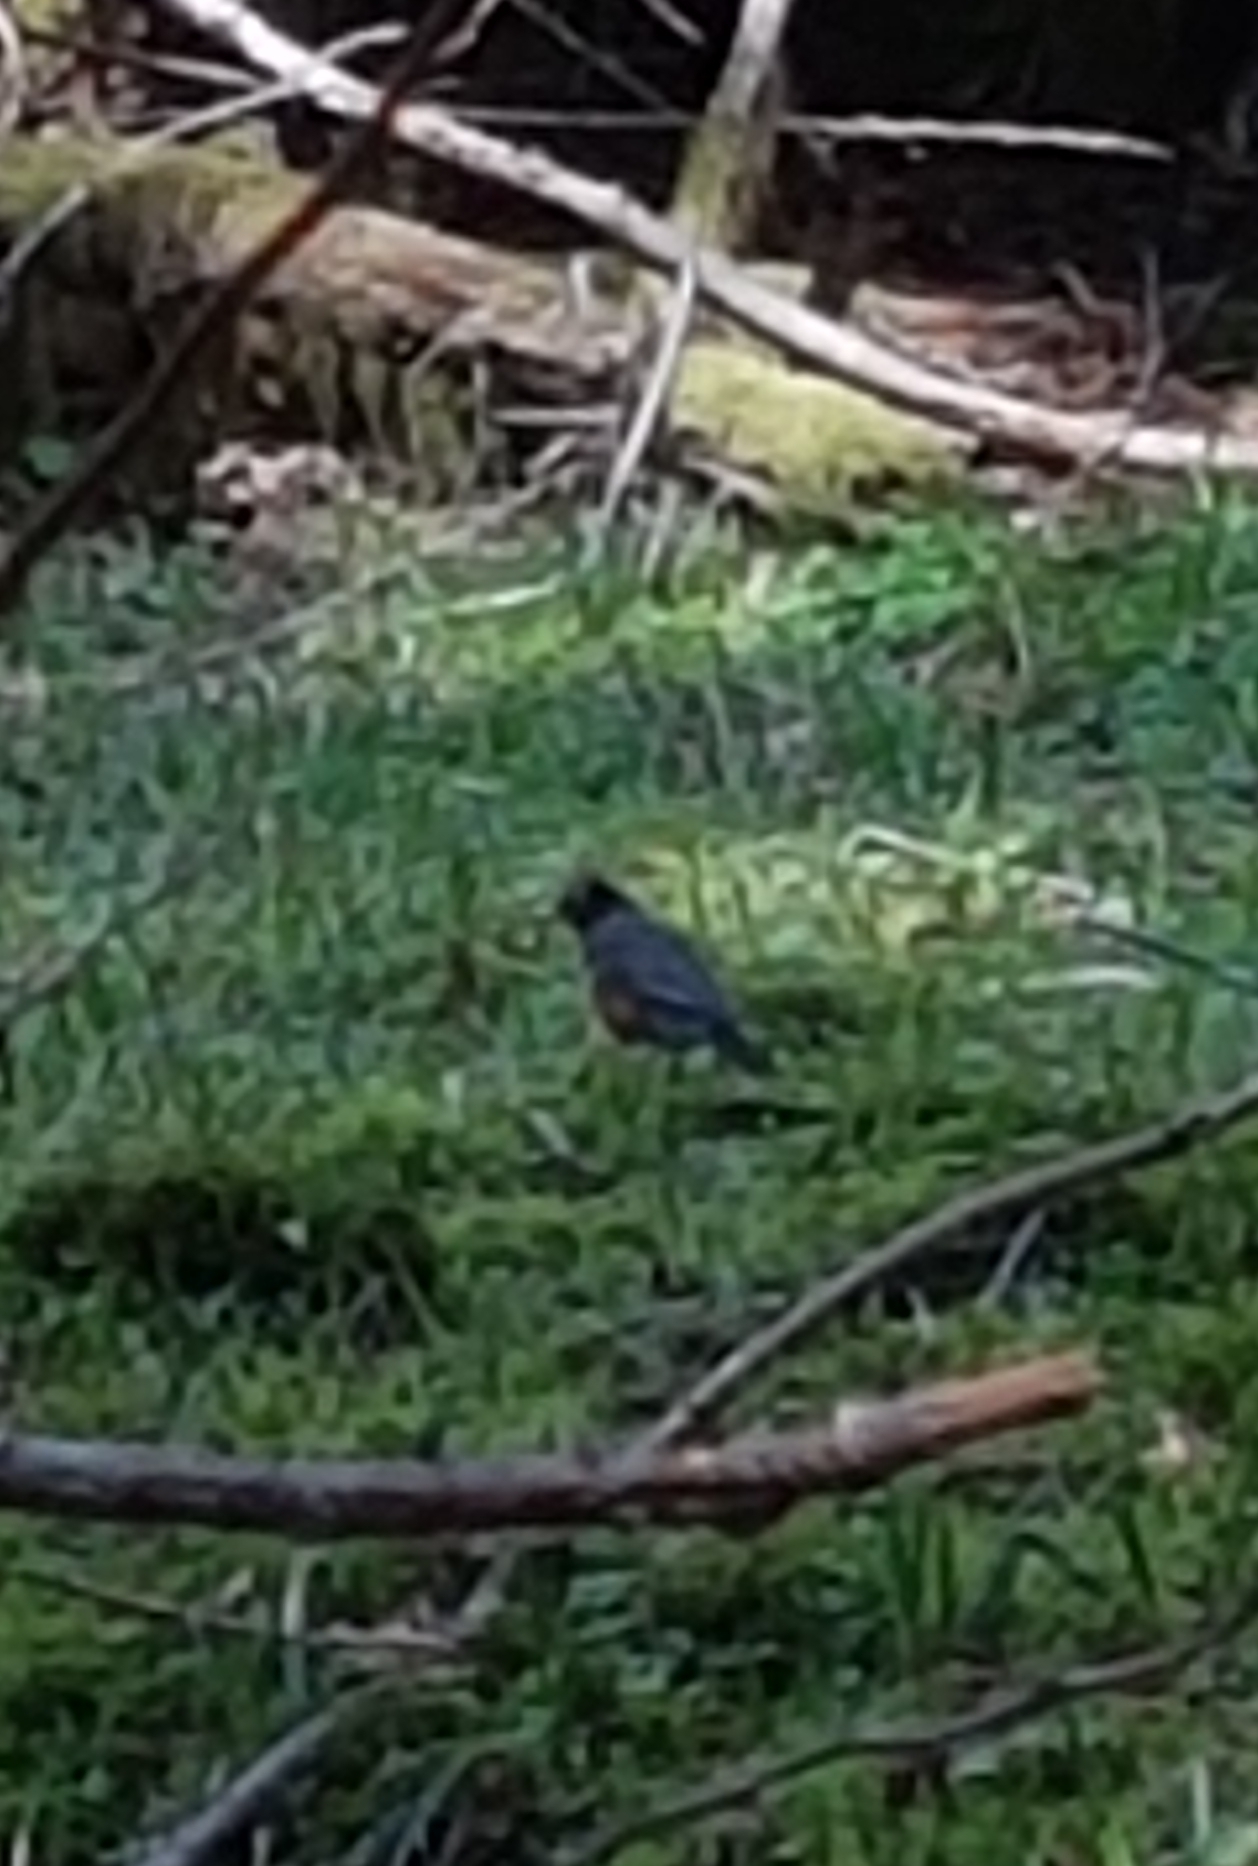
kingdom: Animalia
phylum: Chordata
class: Aves
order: Passeriformes
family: Turdidae
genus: Turdus
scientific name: Turdus migratorius
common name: American robin
